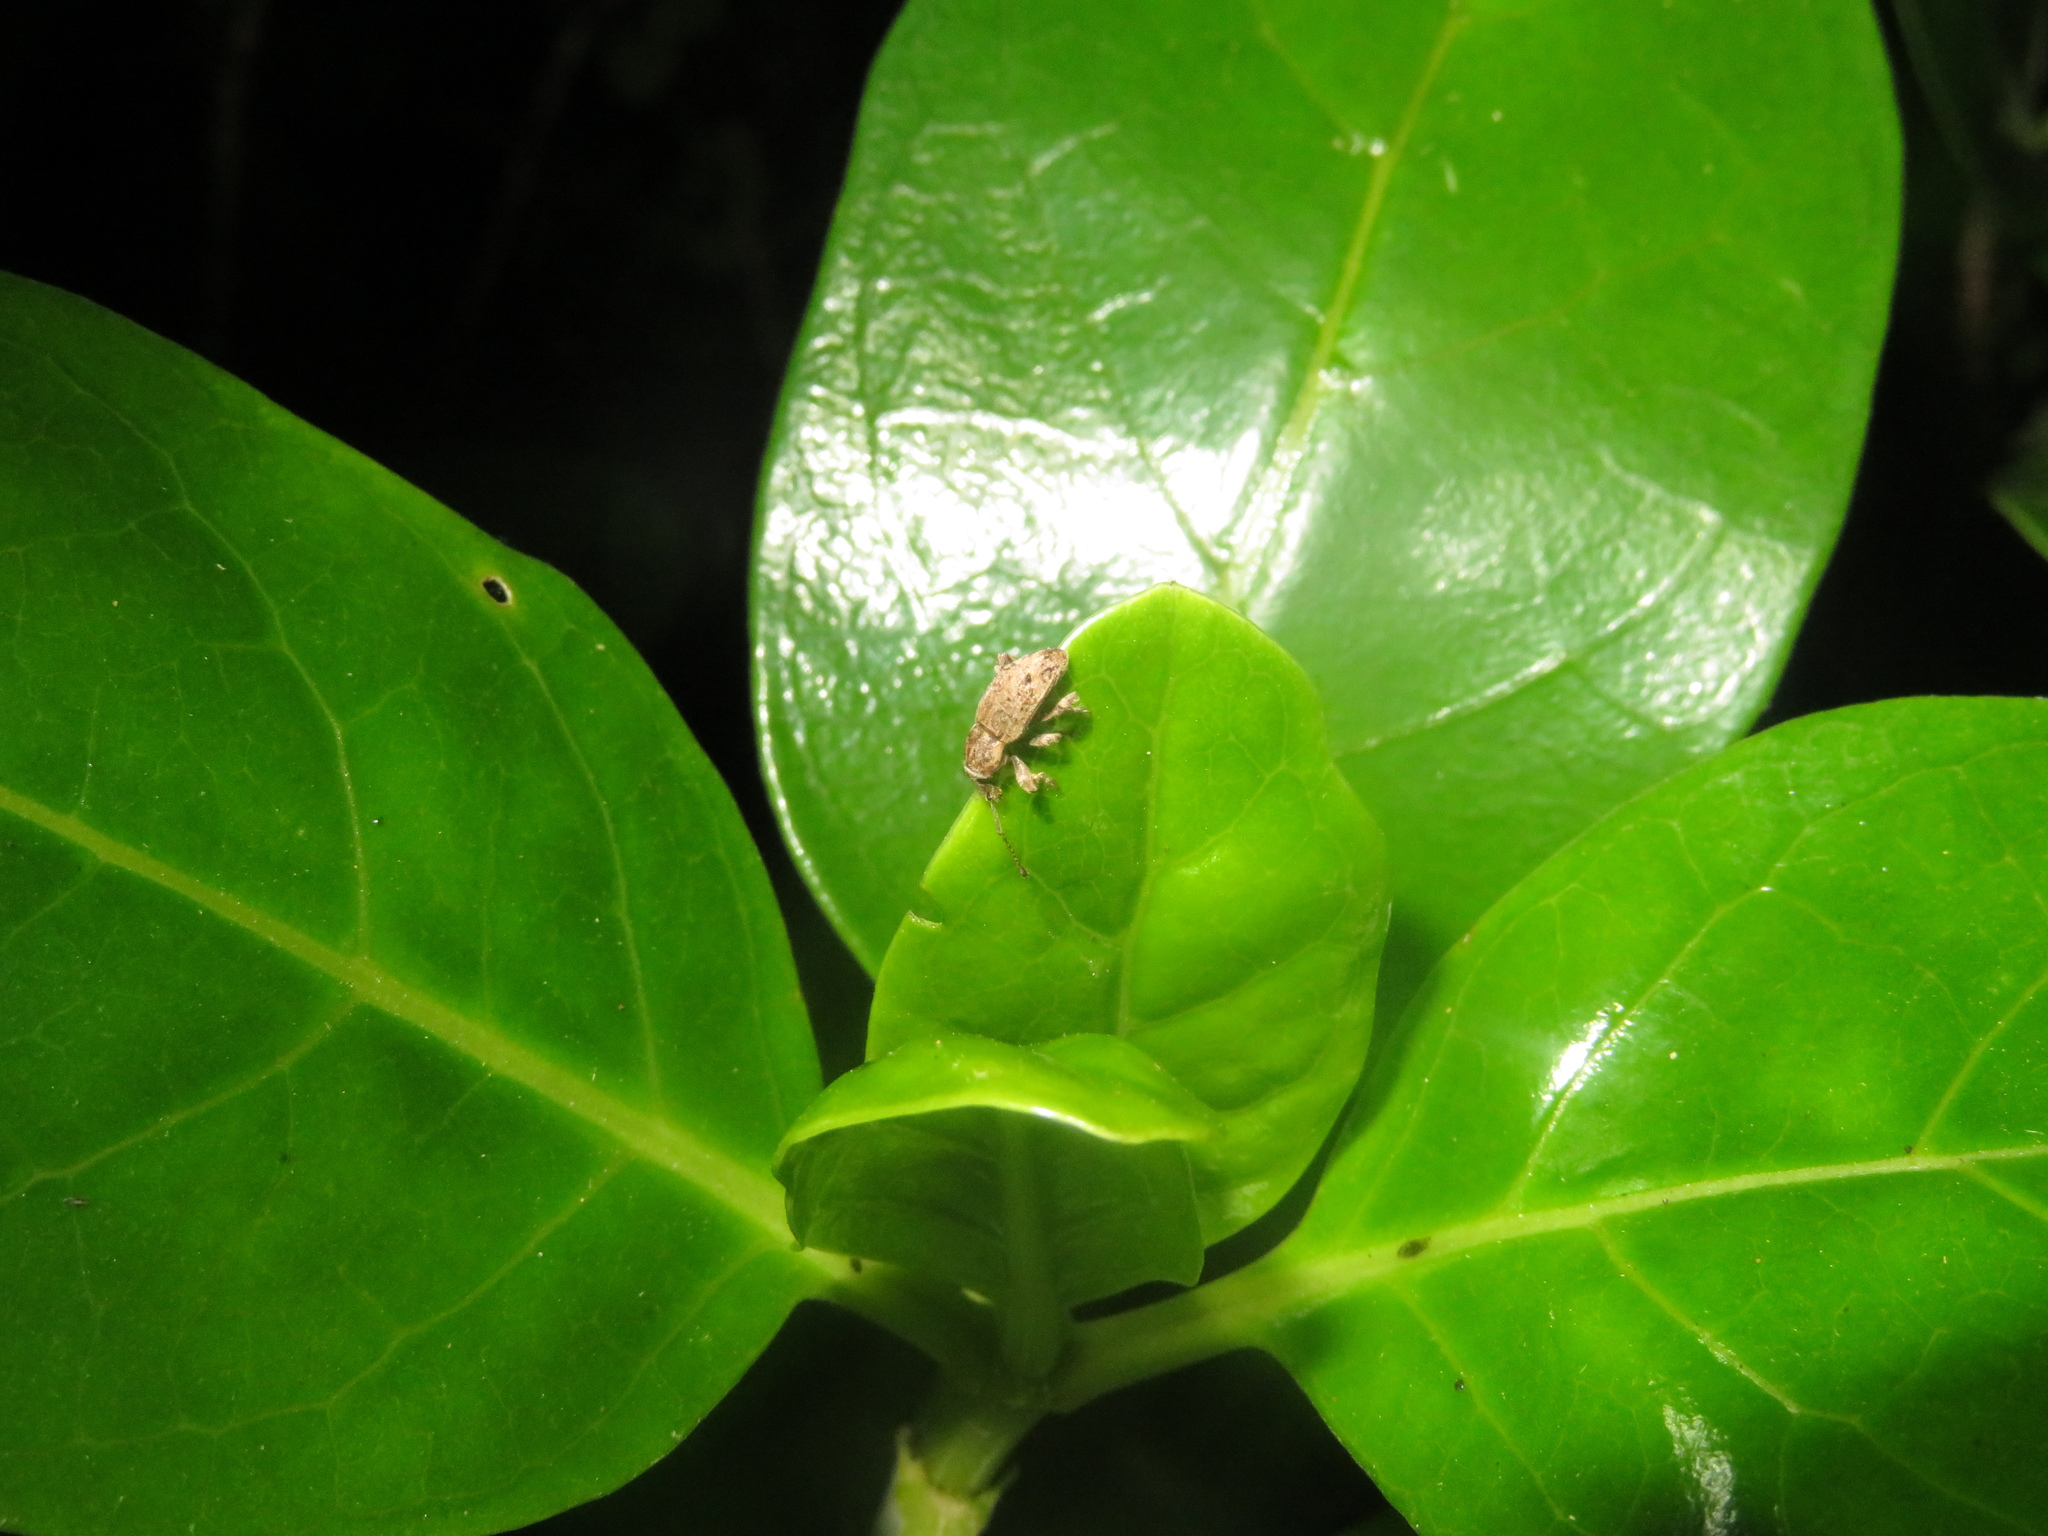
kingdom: Animalia
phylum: Arthropoda
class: Insecta
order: Coleoptera
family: Curculionidae
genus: Chalepistes
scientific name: Chalepistes compressus
